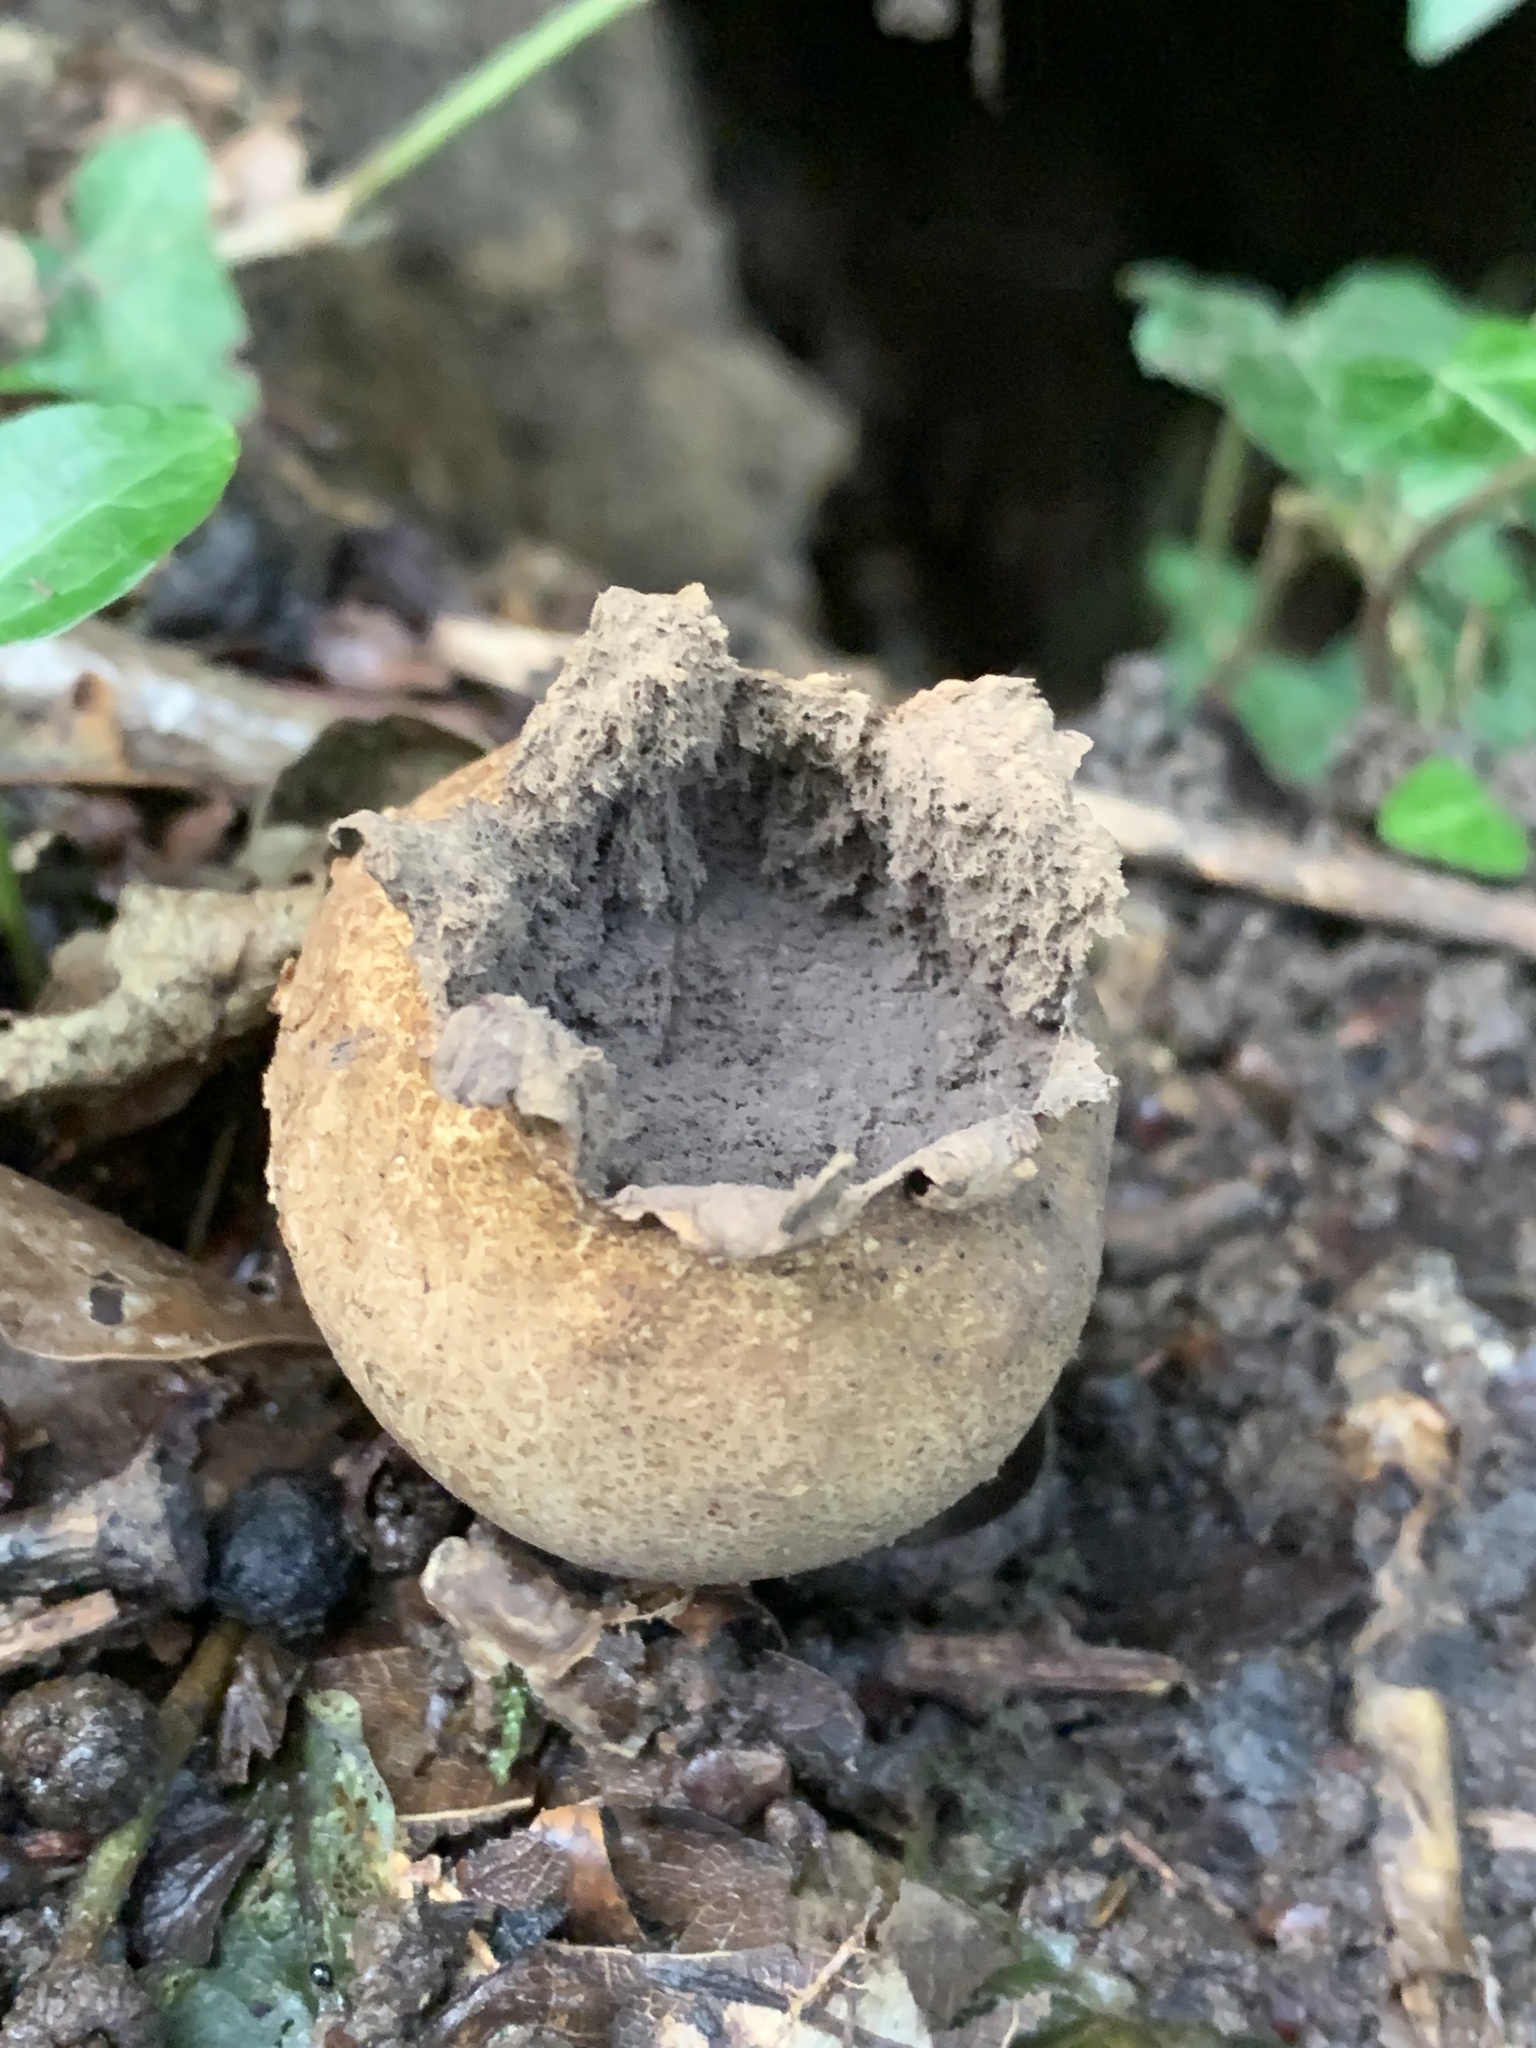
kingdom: Fungi
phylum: Basidiomycota
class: Agaricomycetes
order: Boletales
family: Sclerodermataceae
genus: Scleroderma
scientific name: Scleroderma citrinum
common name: Common earthball
